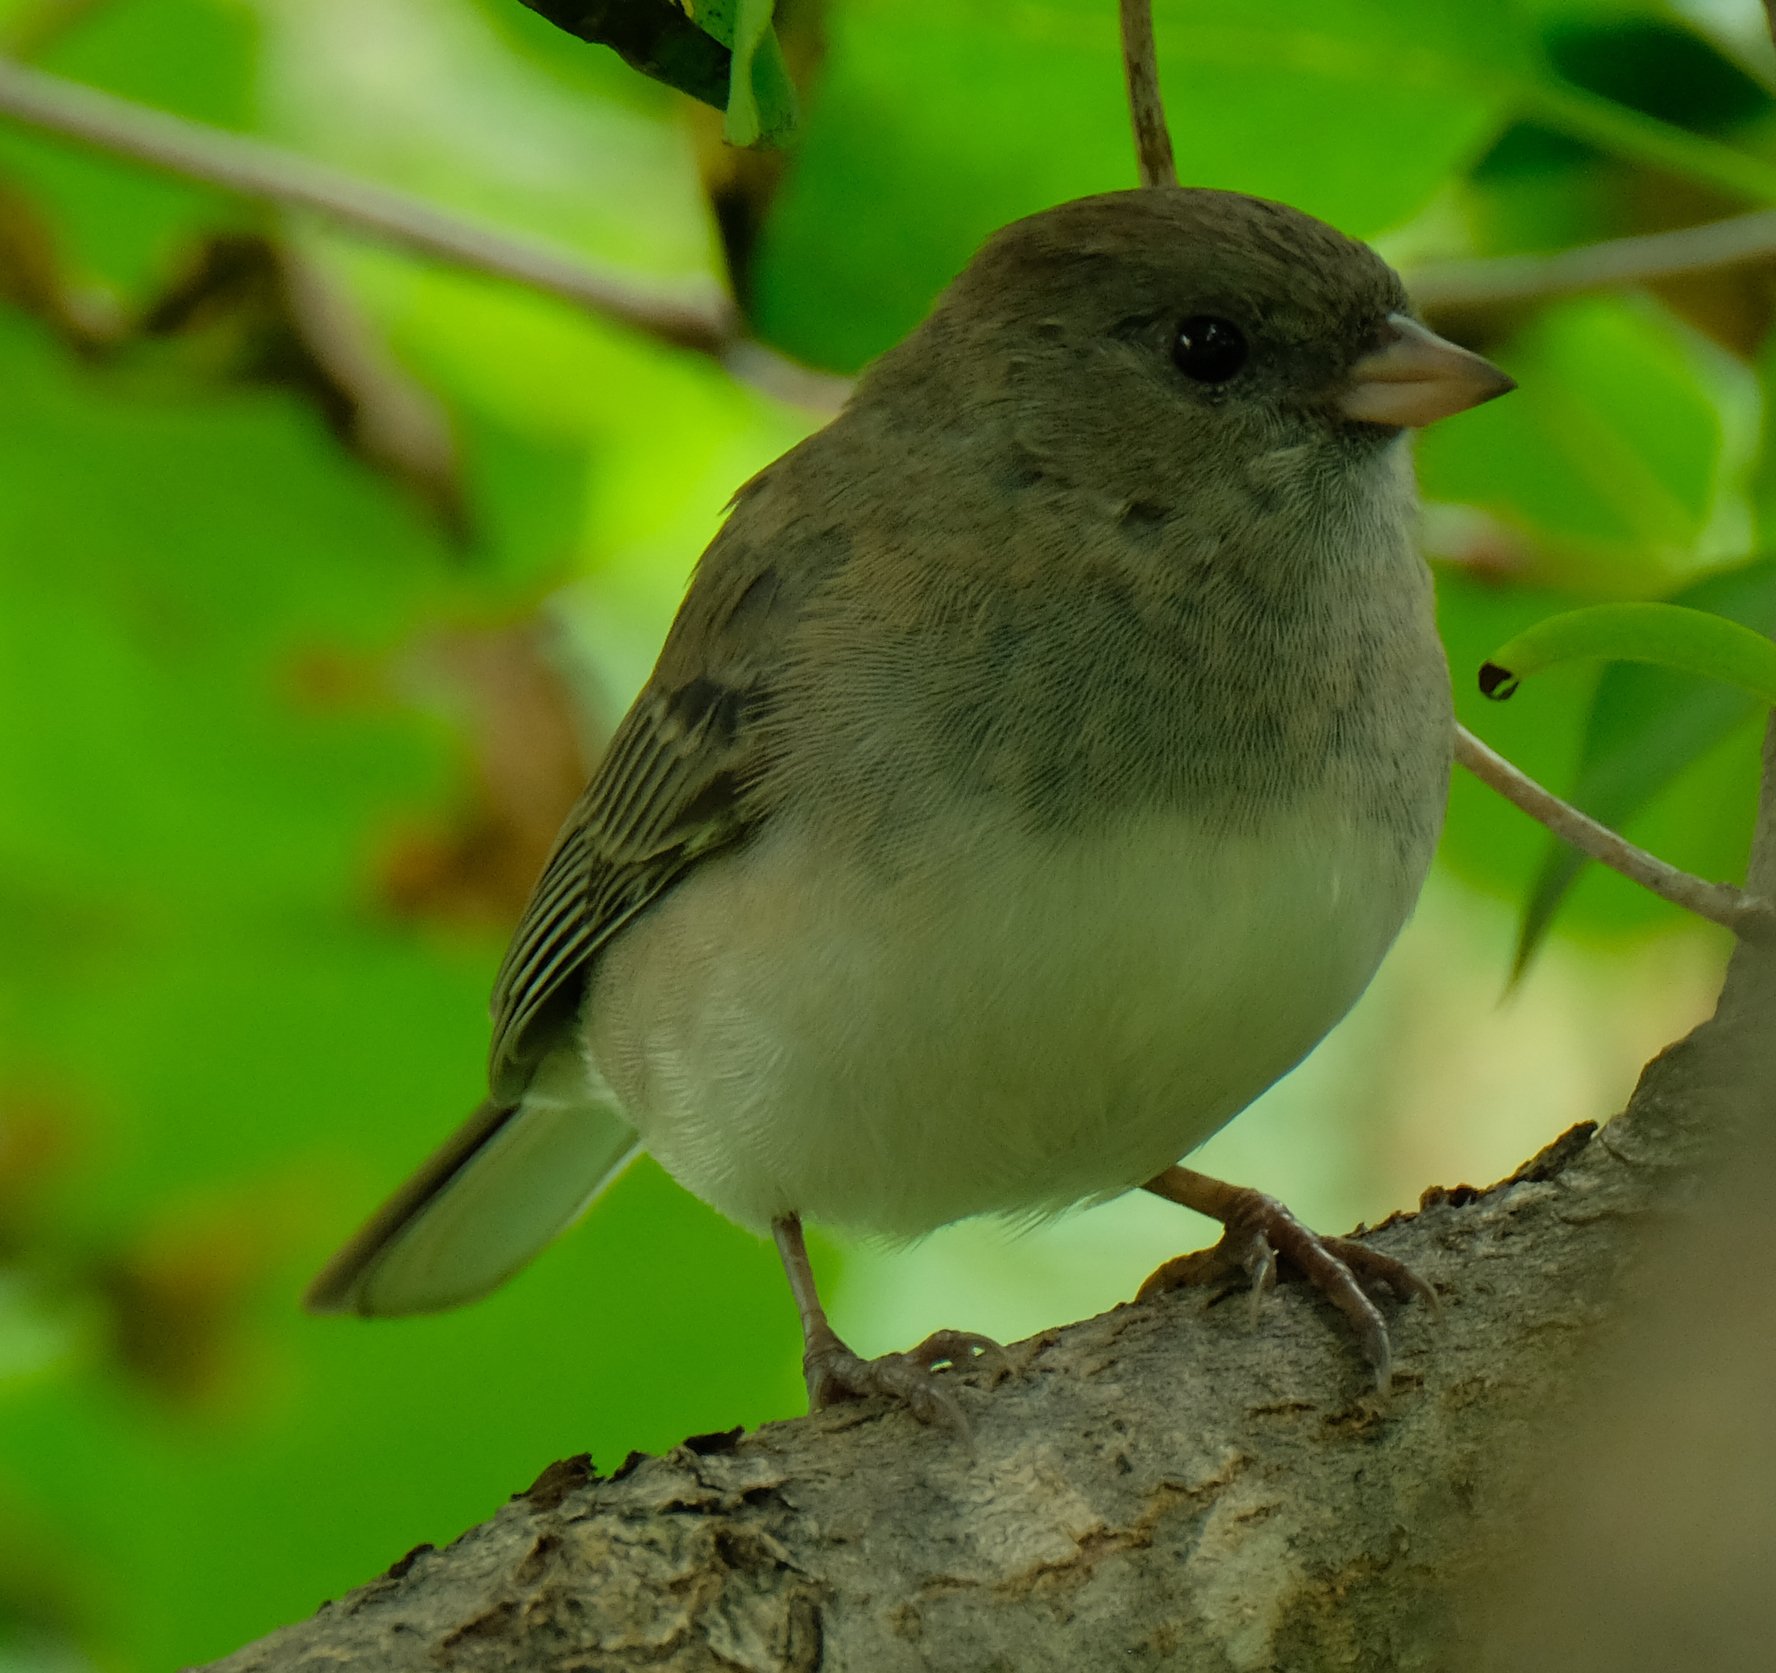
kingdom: Animalia
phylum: Chordata
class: Aves
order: Passeriformes
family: Passerellidae
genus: Junco
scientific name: Junco hyemalis
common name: Dark-eyed junco
